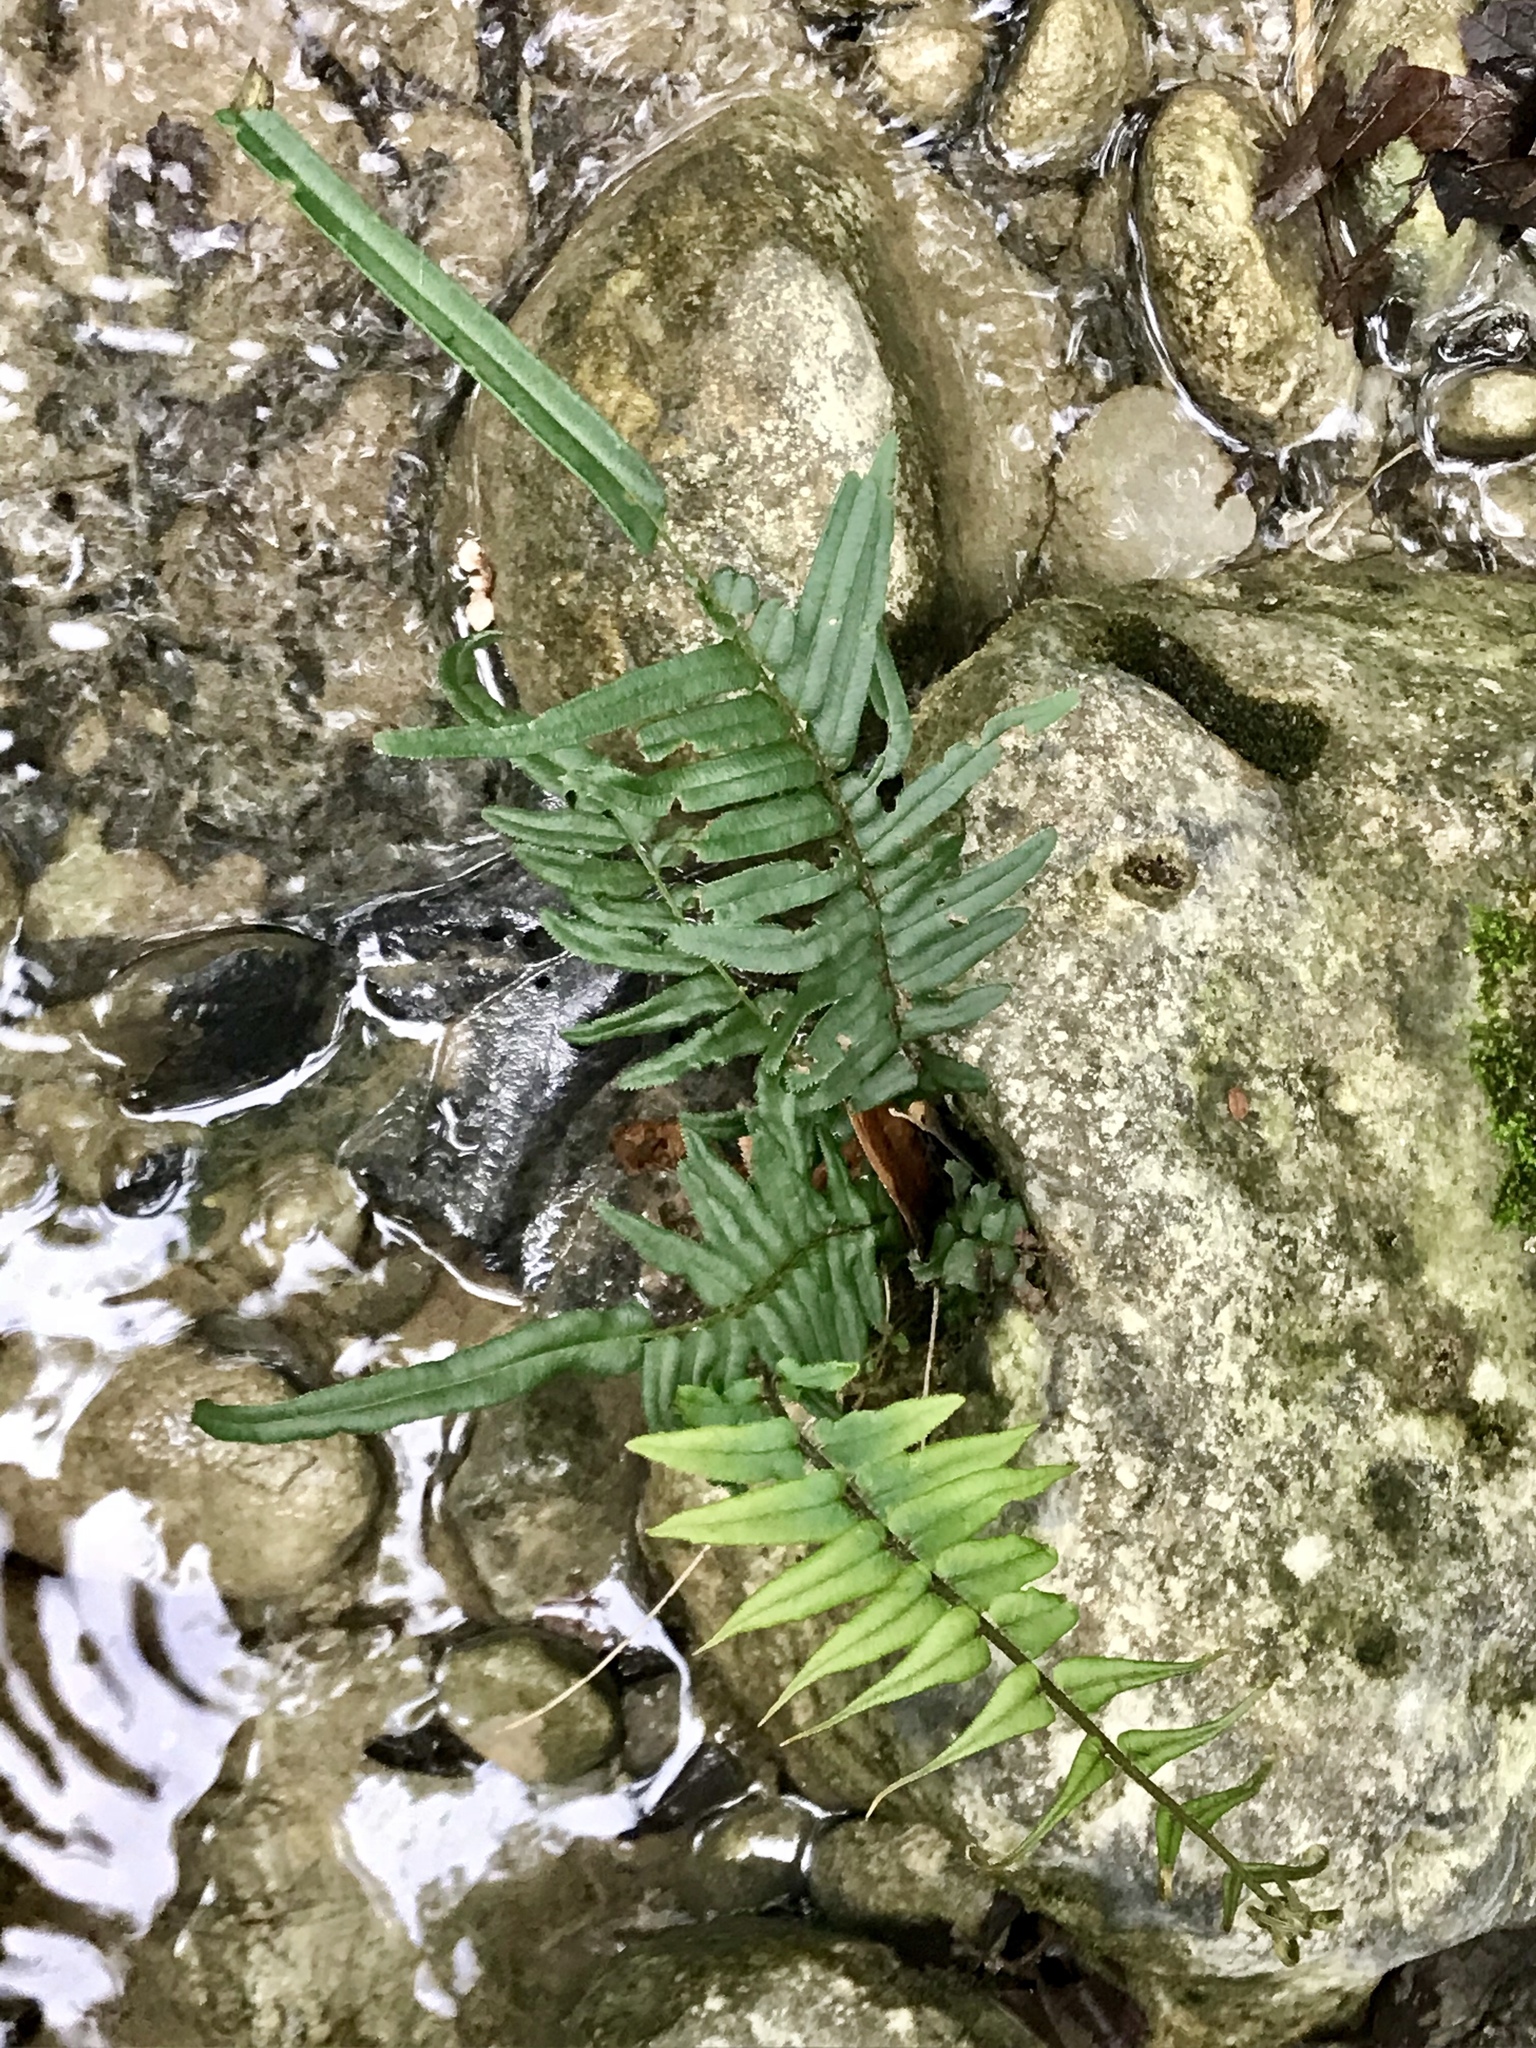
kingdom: Plantae
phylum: Tracheophyta
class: Polypodiopsida
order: Polypodiales
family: Pteridaceae
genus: Pteris
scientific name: Pteris vittata
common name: Ladder brake
